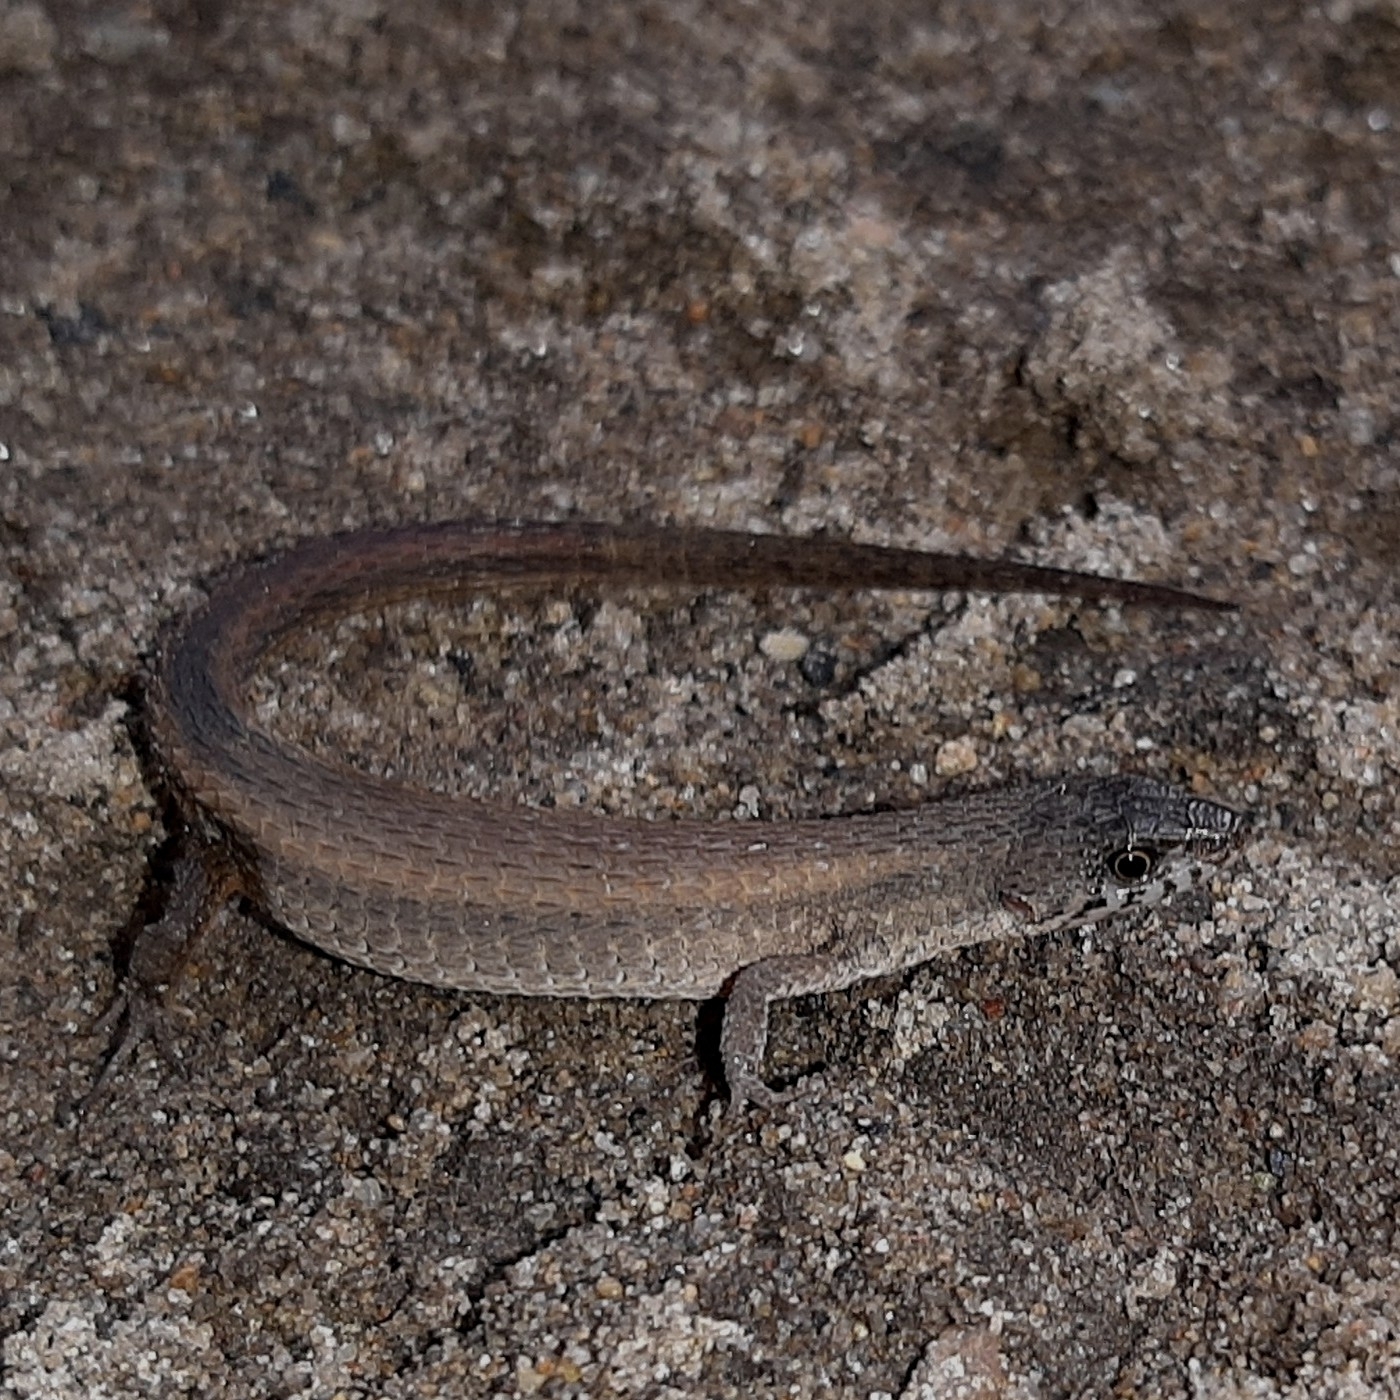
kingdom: Animalia
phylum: Chordata
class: Squamata
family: Gymnophthalmidae
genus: Loxopholis
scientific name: Loxopholis rugiceps
